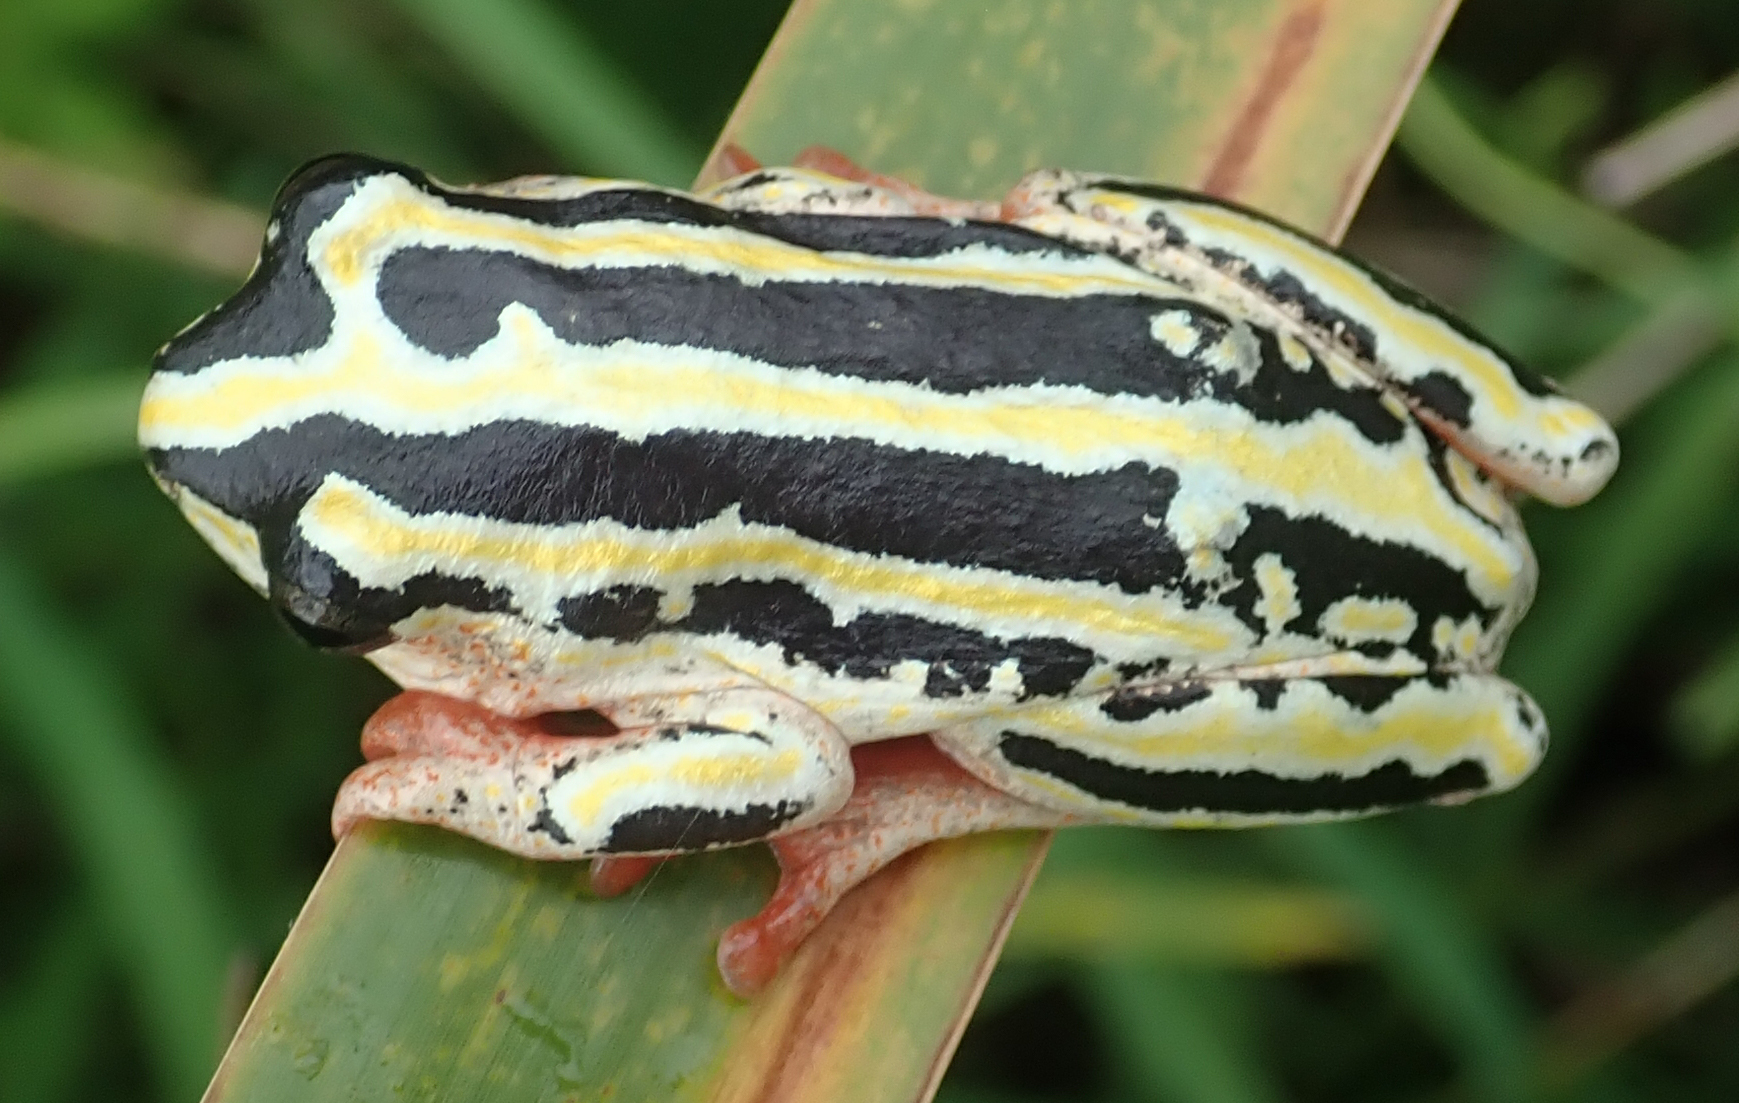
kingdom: Animalia
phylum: Chordata
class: Amphibia
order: Anura
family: Hyperoliidae
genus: Hyperolius
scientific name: Hyperolius marmoratus
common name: Painted reed frog
